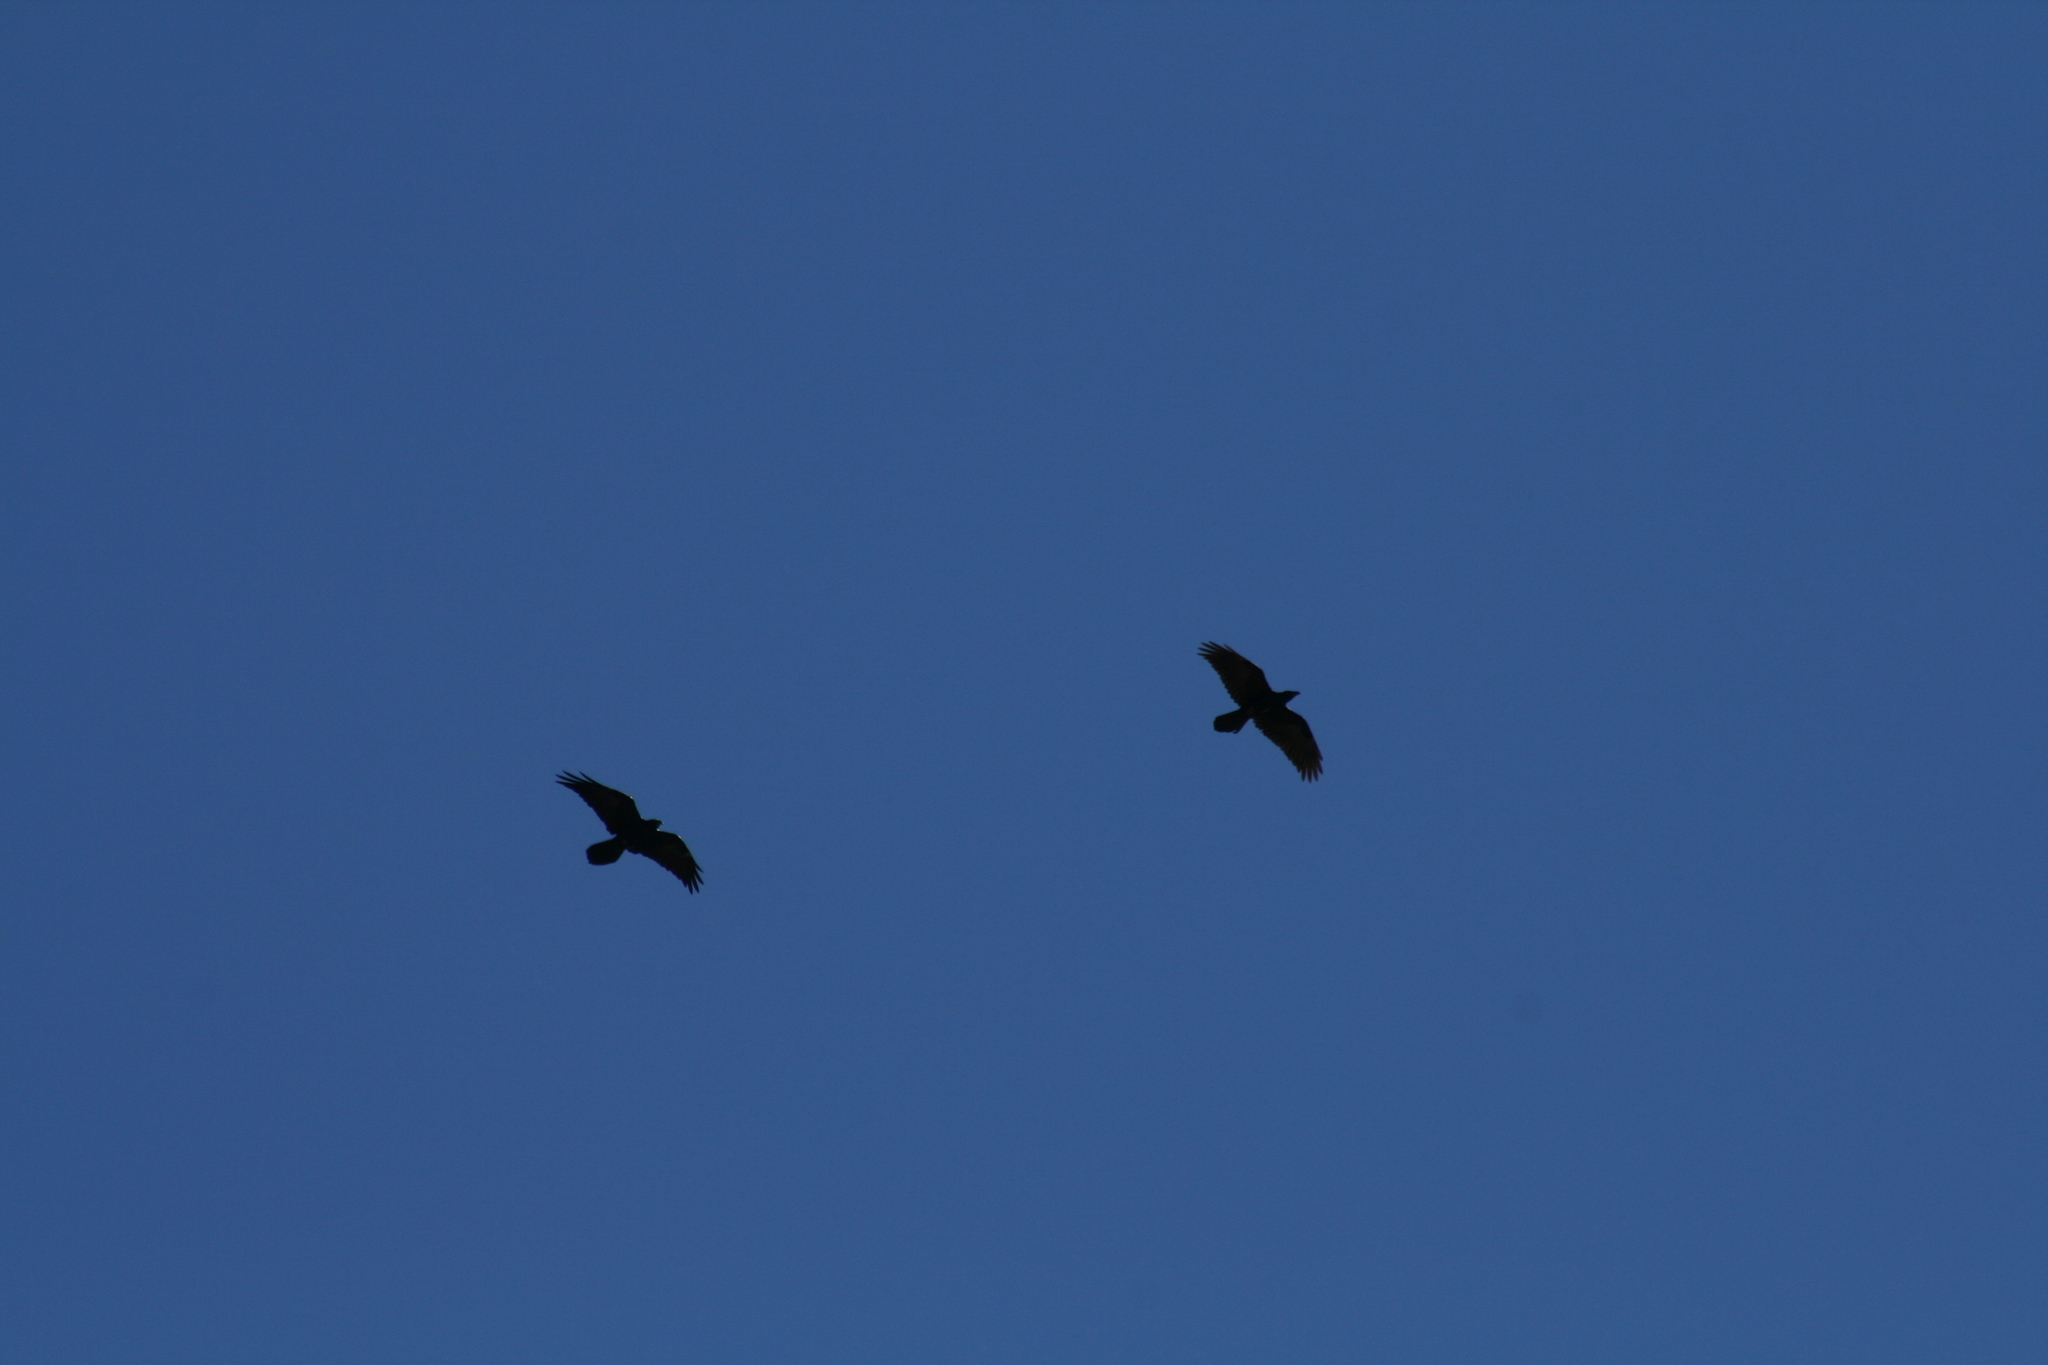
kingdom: Animalia
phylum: Chordata
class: Aves
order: Passeriformes
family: Corvidae
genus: Corvus
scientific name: Corvus corax
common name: Common raven
